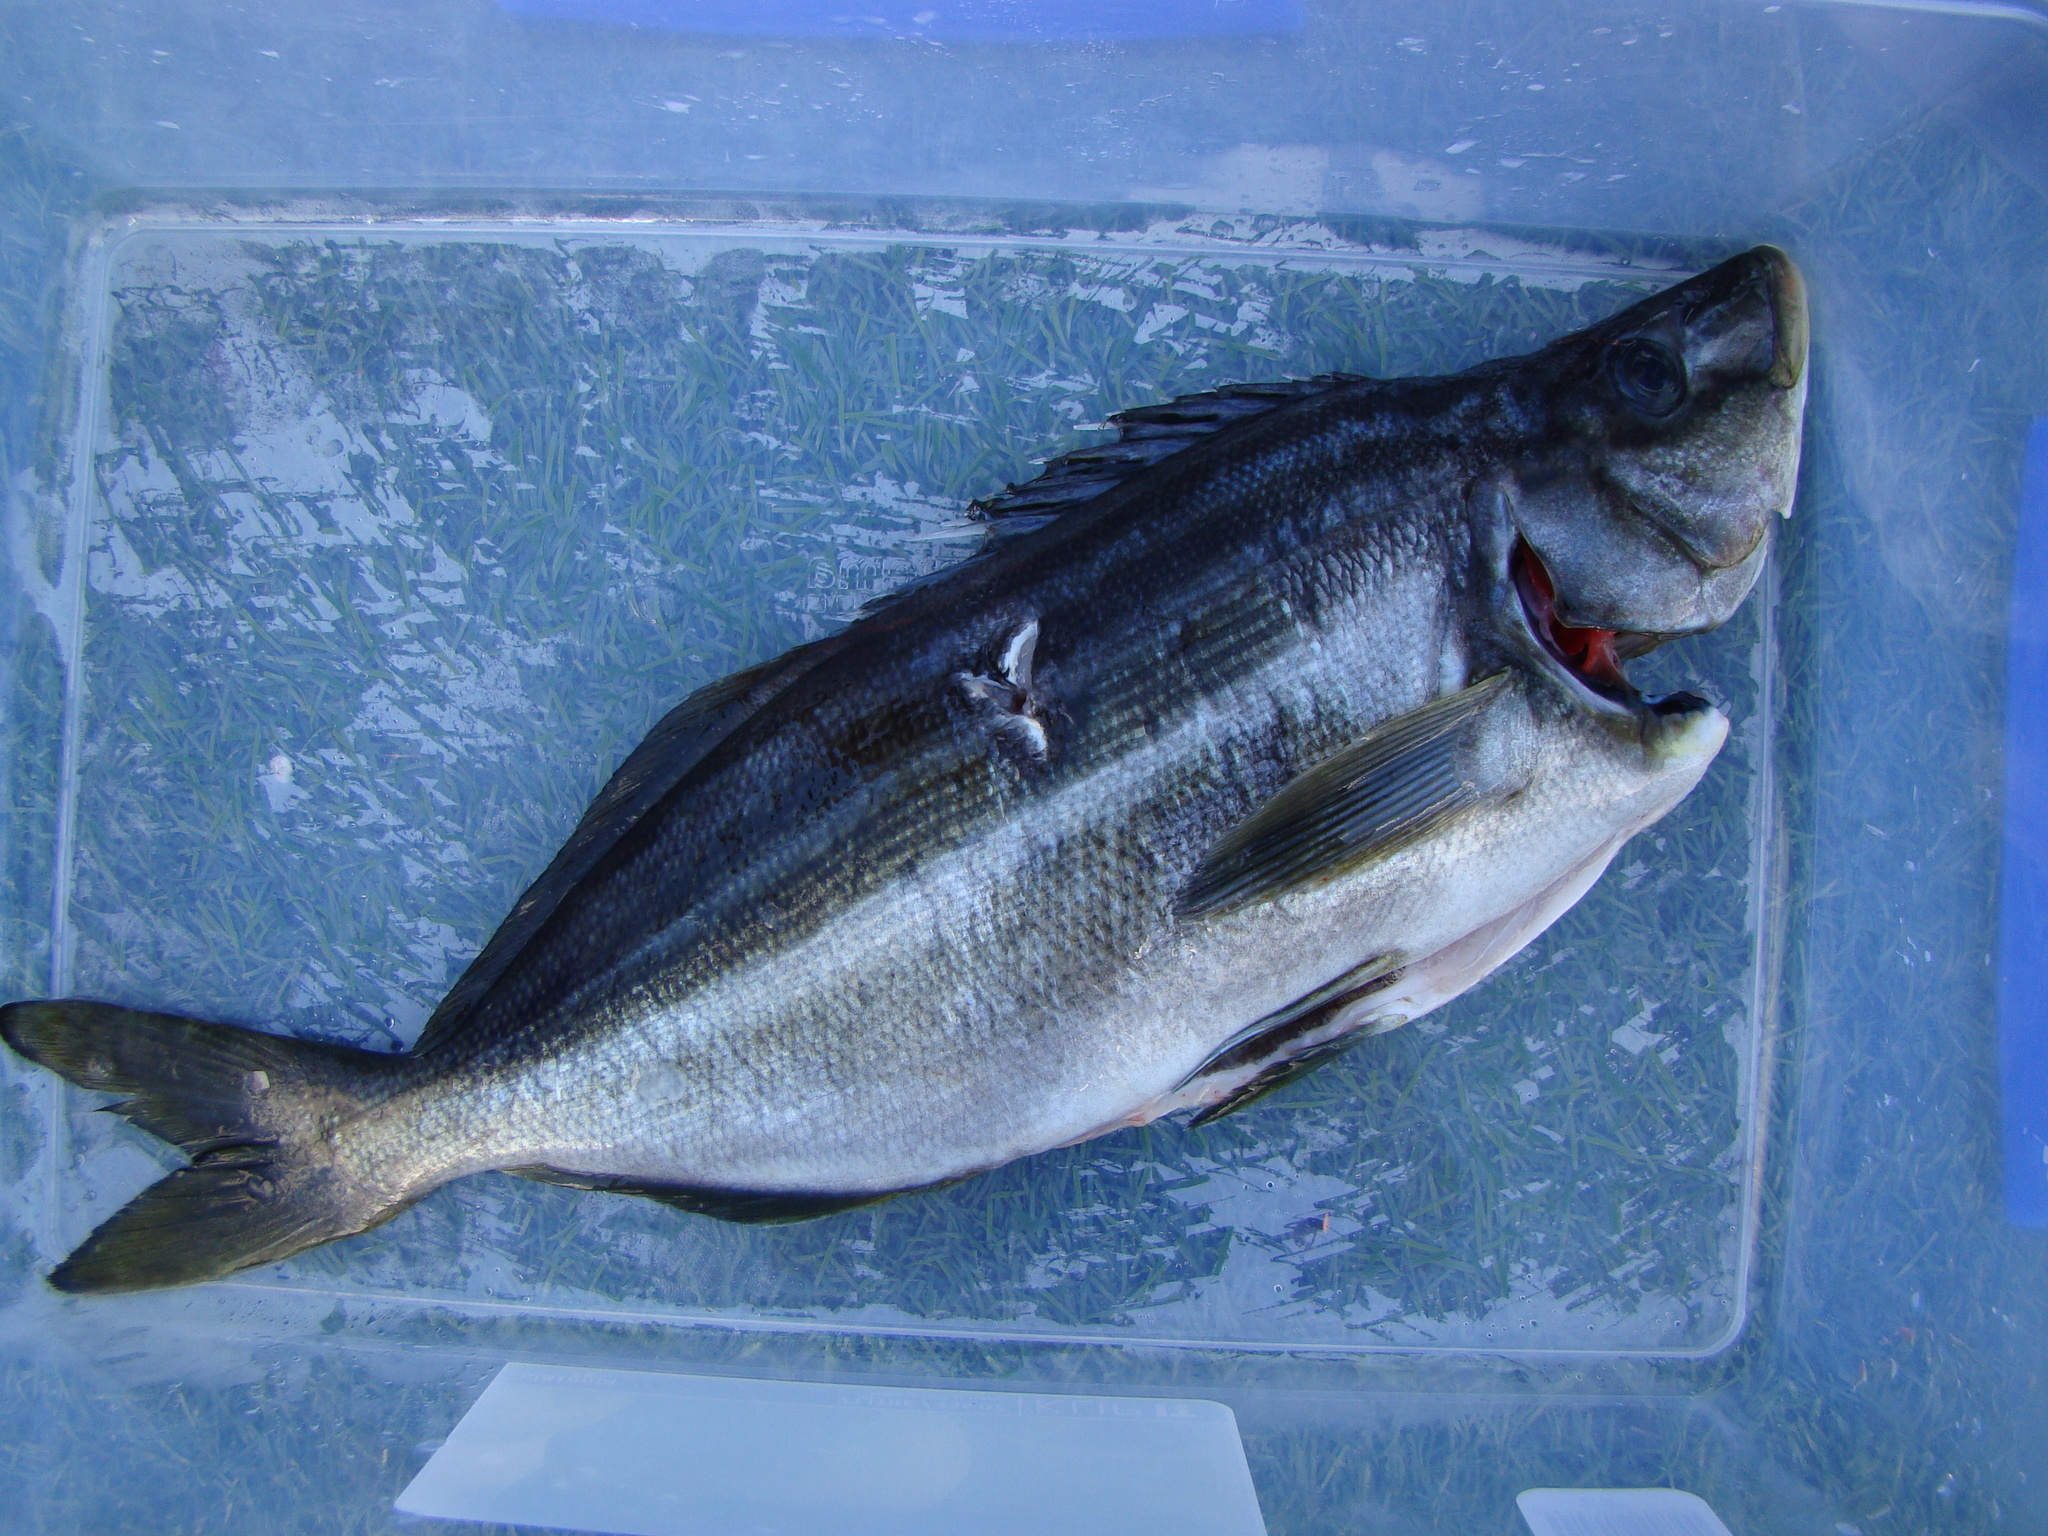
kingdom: Animalia
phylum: Chordata
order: Perciformes
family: Latridae
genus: Latris
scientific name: Latris lineata
